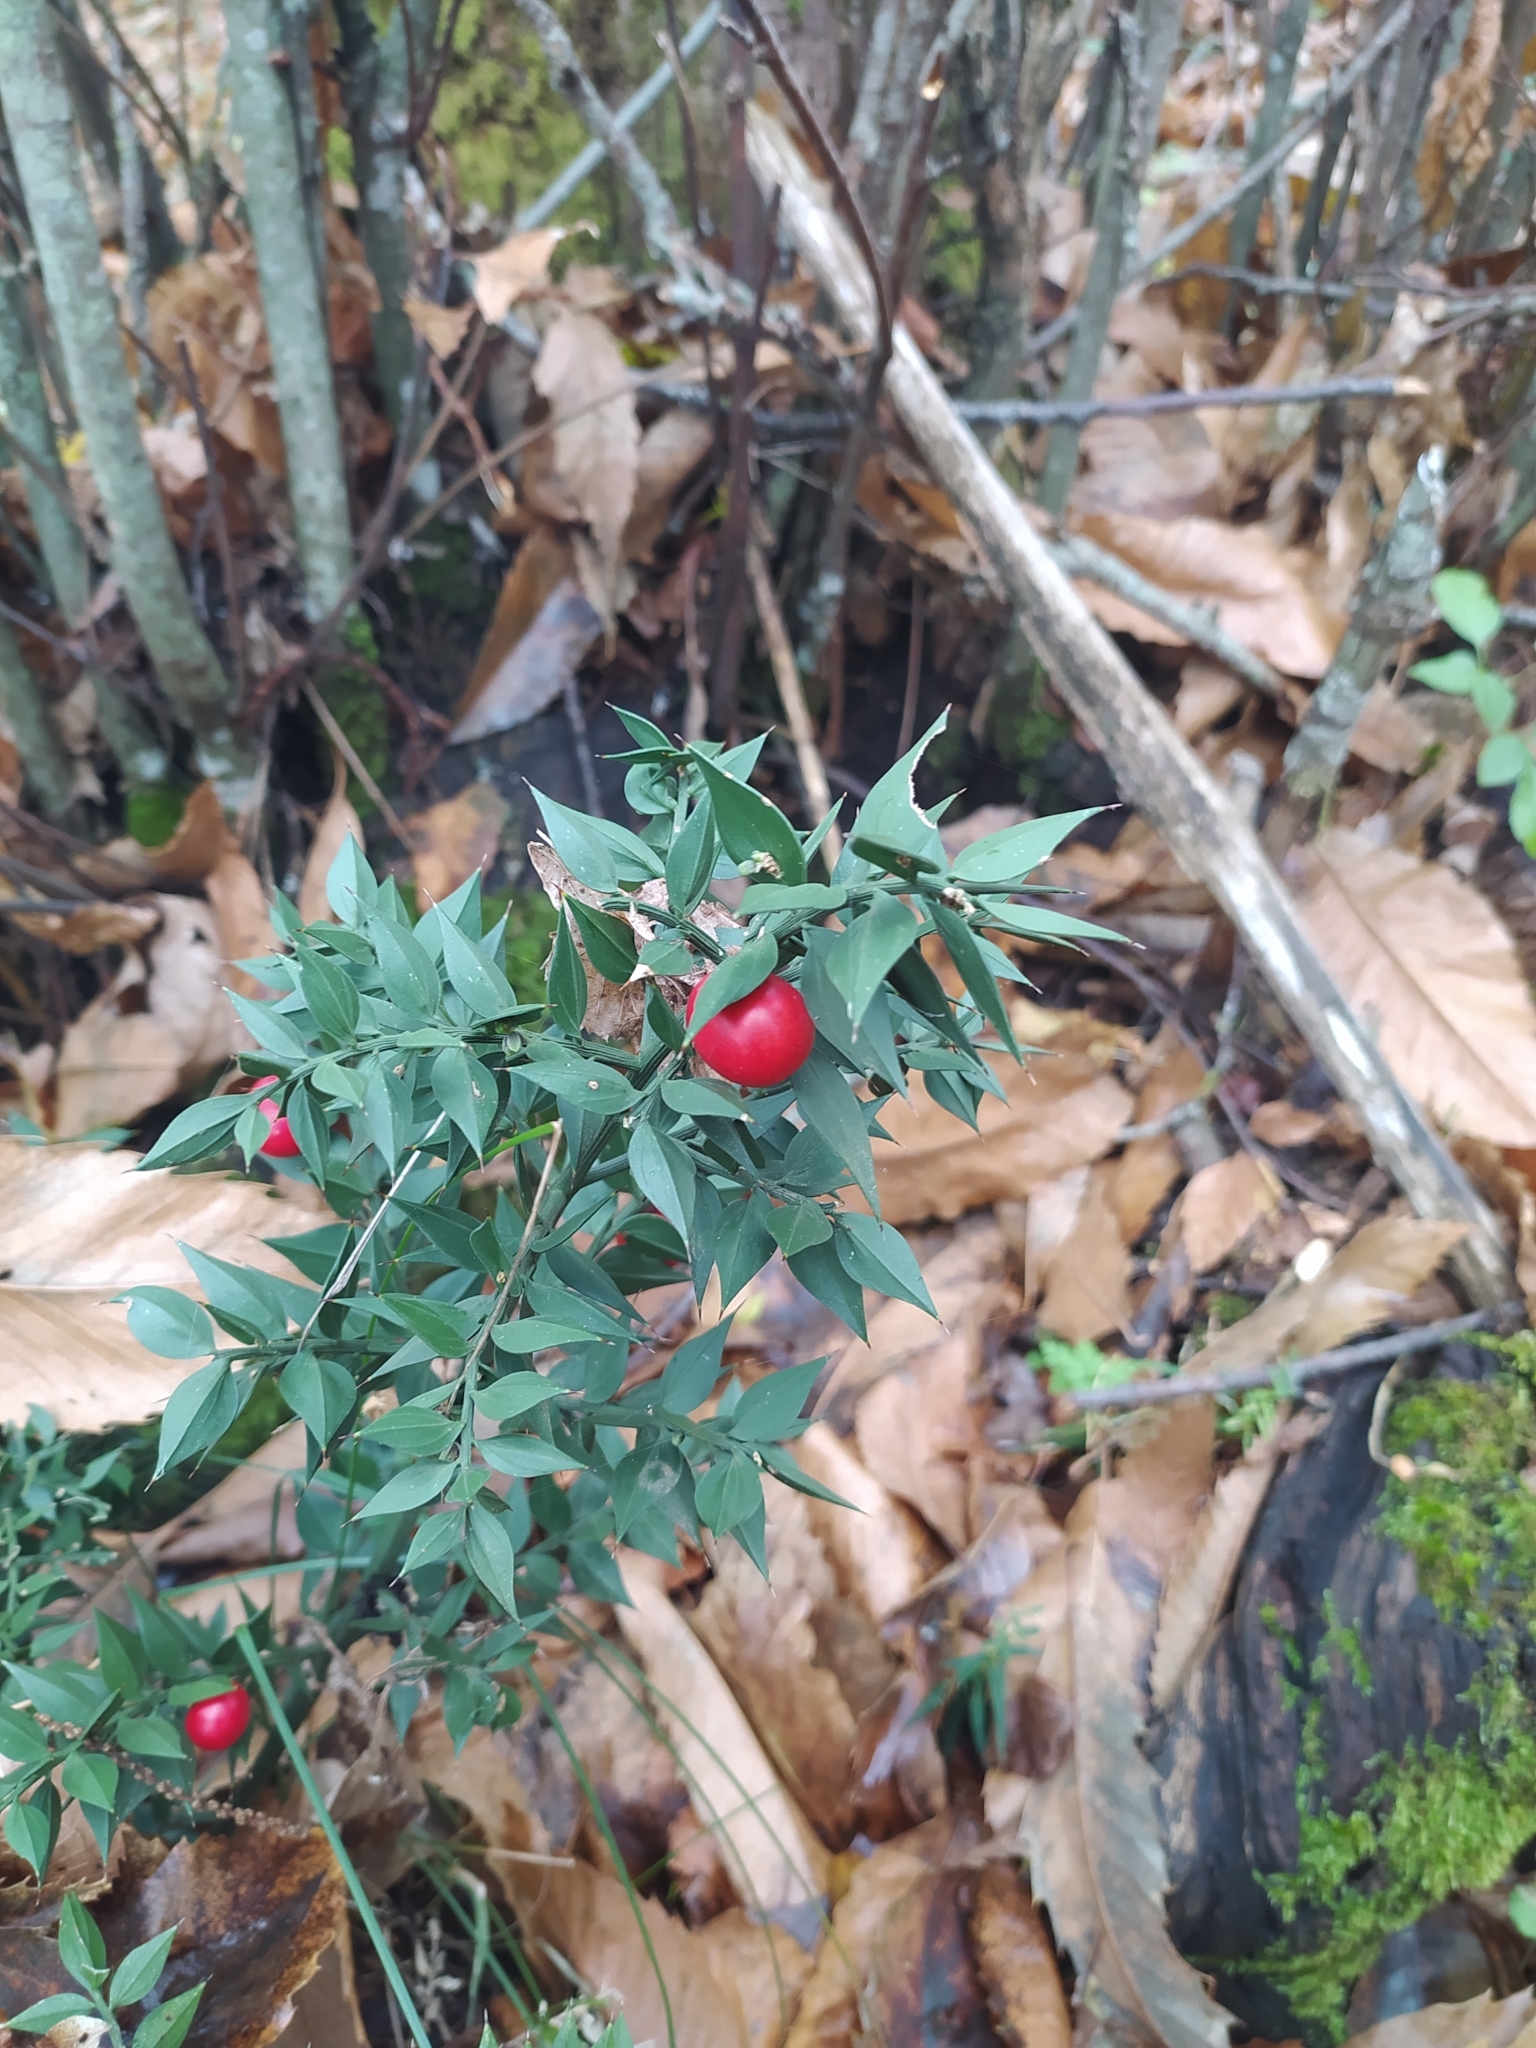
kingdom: Plantae
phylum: Tracheophyta
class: Liliopsida
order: Asparagales
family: Asparagaceae
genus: Ruscus
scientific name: Ruscus aculeatus
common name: Butcher's-broom
